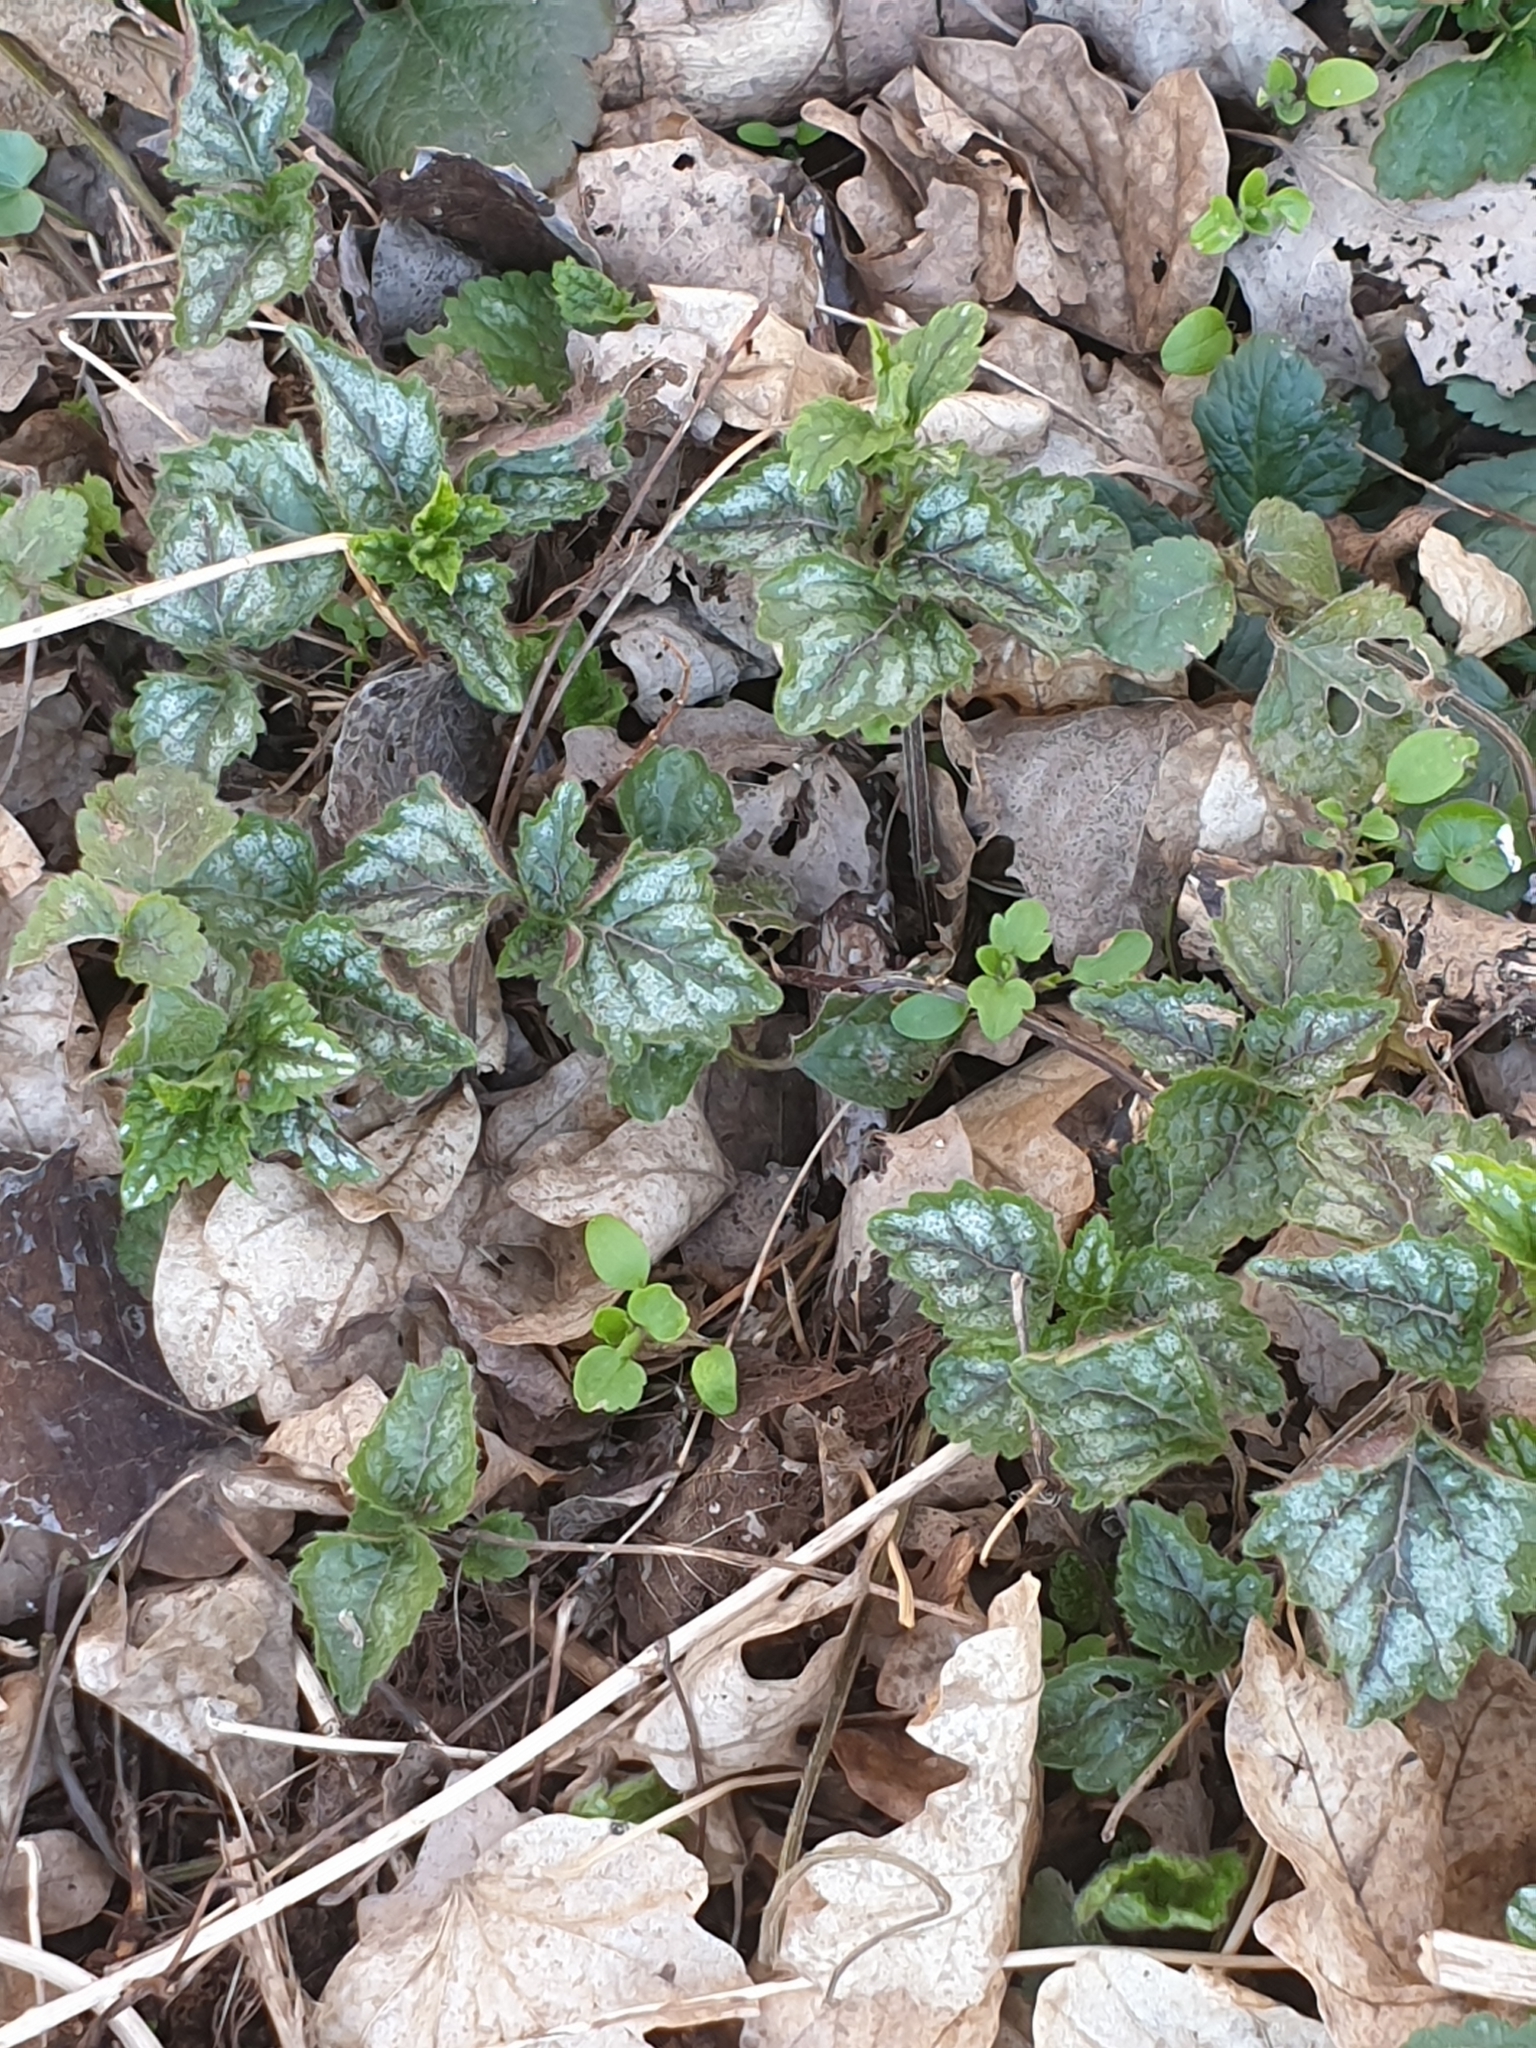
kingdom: Plantae
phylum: Tracheophyta
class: Magnoliopsida
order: Lamiales
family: Lamiaceae
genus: Lamium
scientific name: Lamium galeobdolon
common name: Yellow archangel
